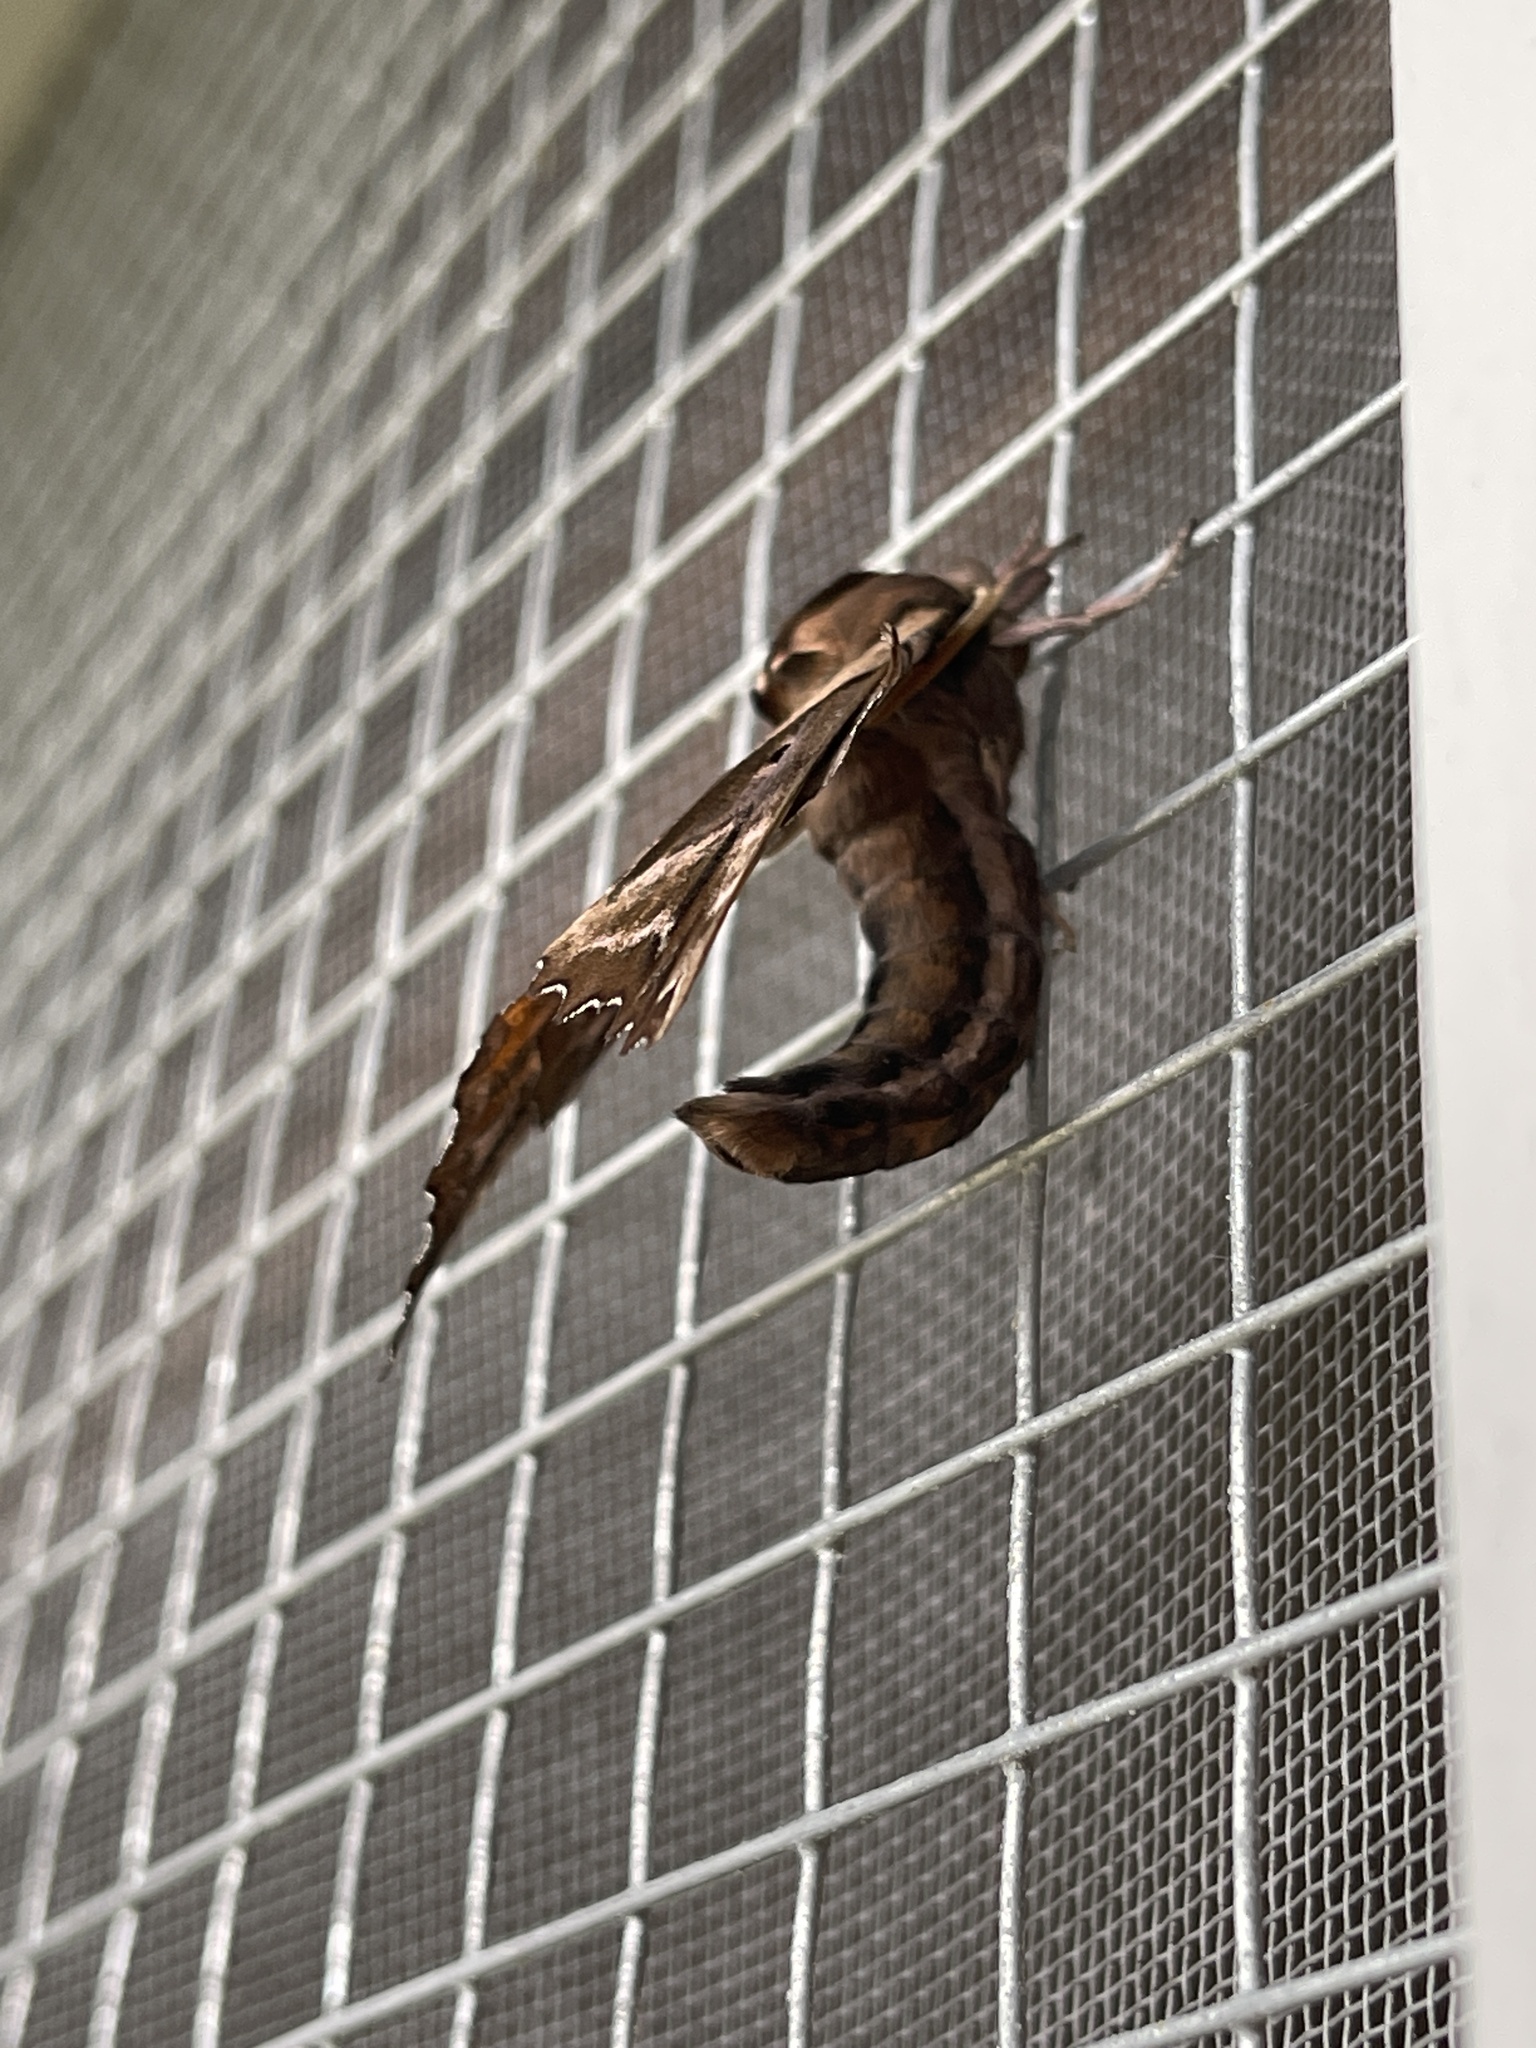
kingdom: Animalia
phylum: Arthropoda
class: Insecta
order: Lepidoptera
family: Sphingidae
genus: Paonias
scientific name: Paonias excaecata
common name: Blind-eyed sphinx
